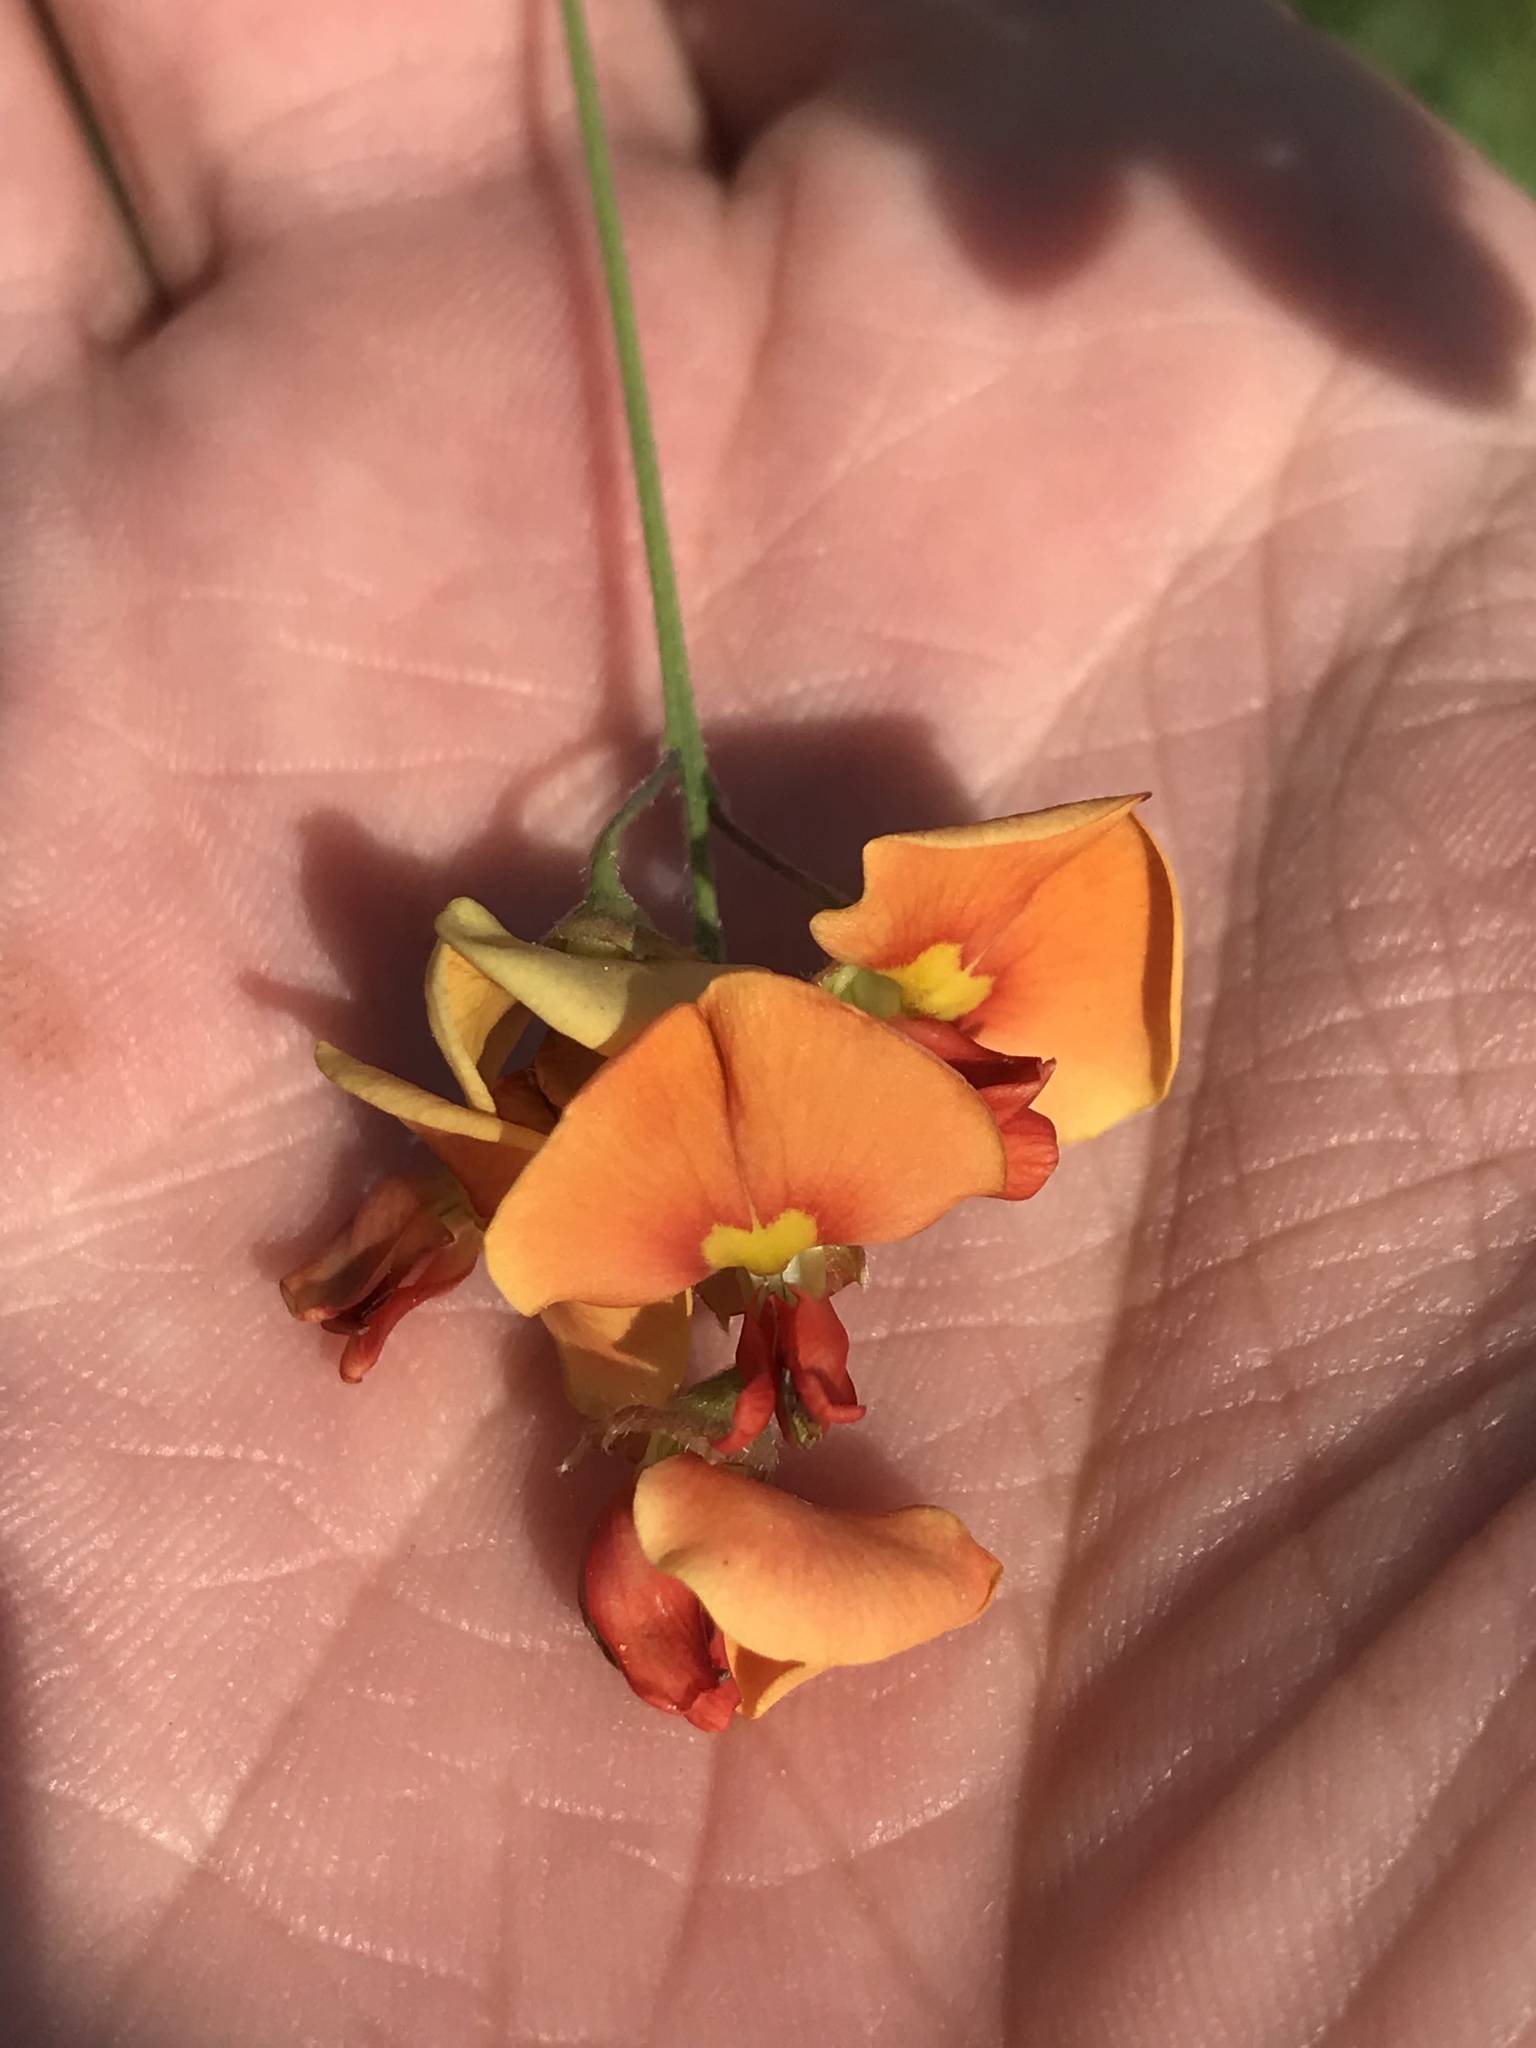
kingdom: Plantae
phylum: Tracheophyta
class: Magnoliopsida
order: Fabales
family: Fabaceae
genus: Sesbania
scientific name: Sesbania vesicaria
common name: Bagpod
